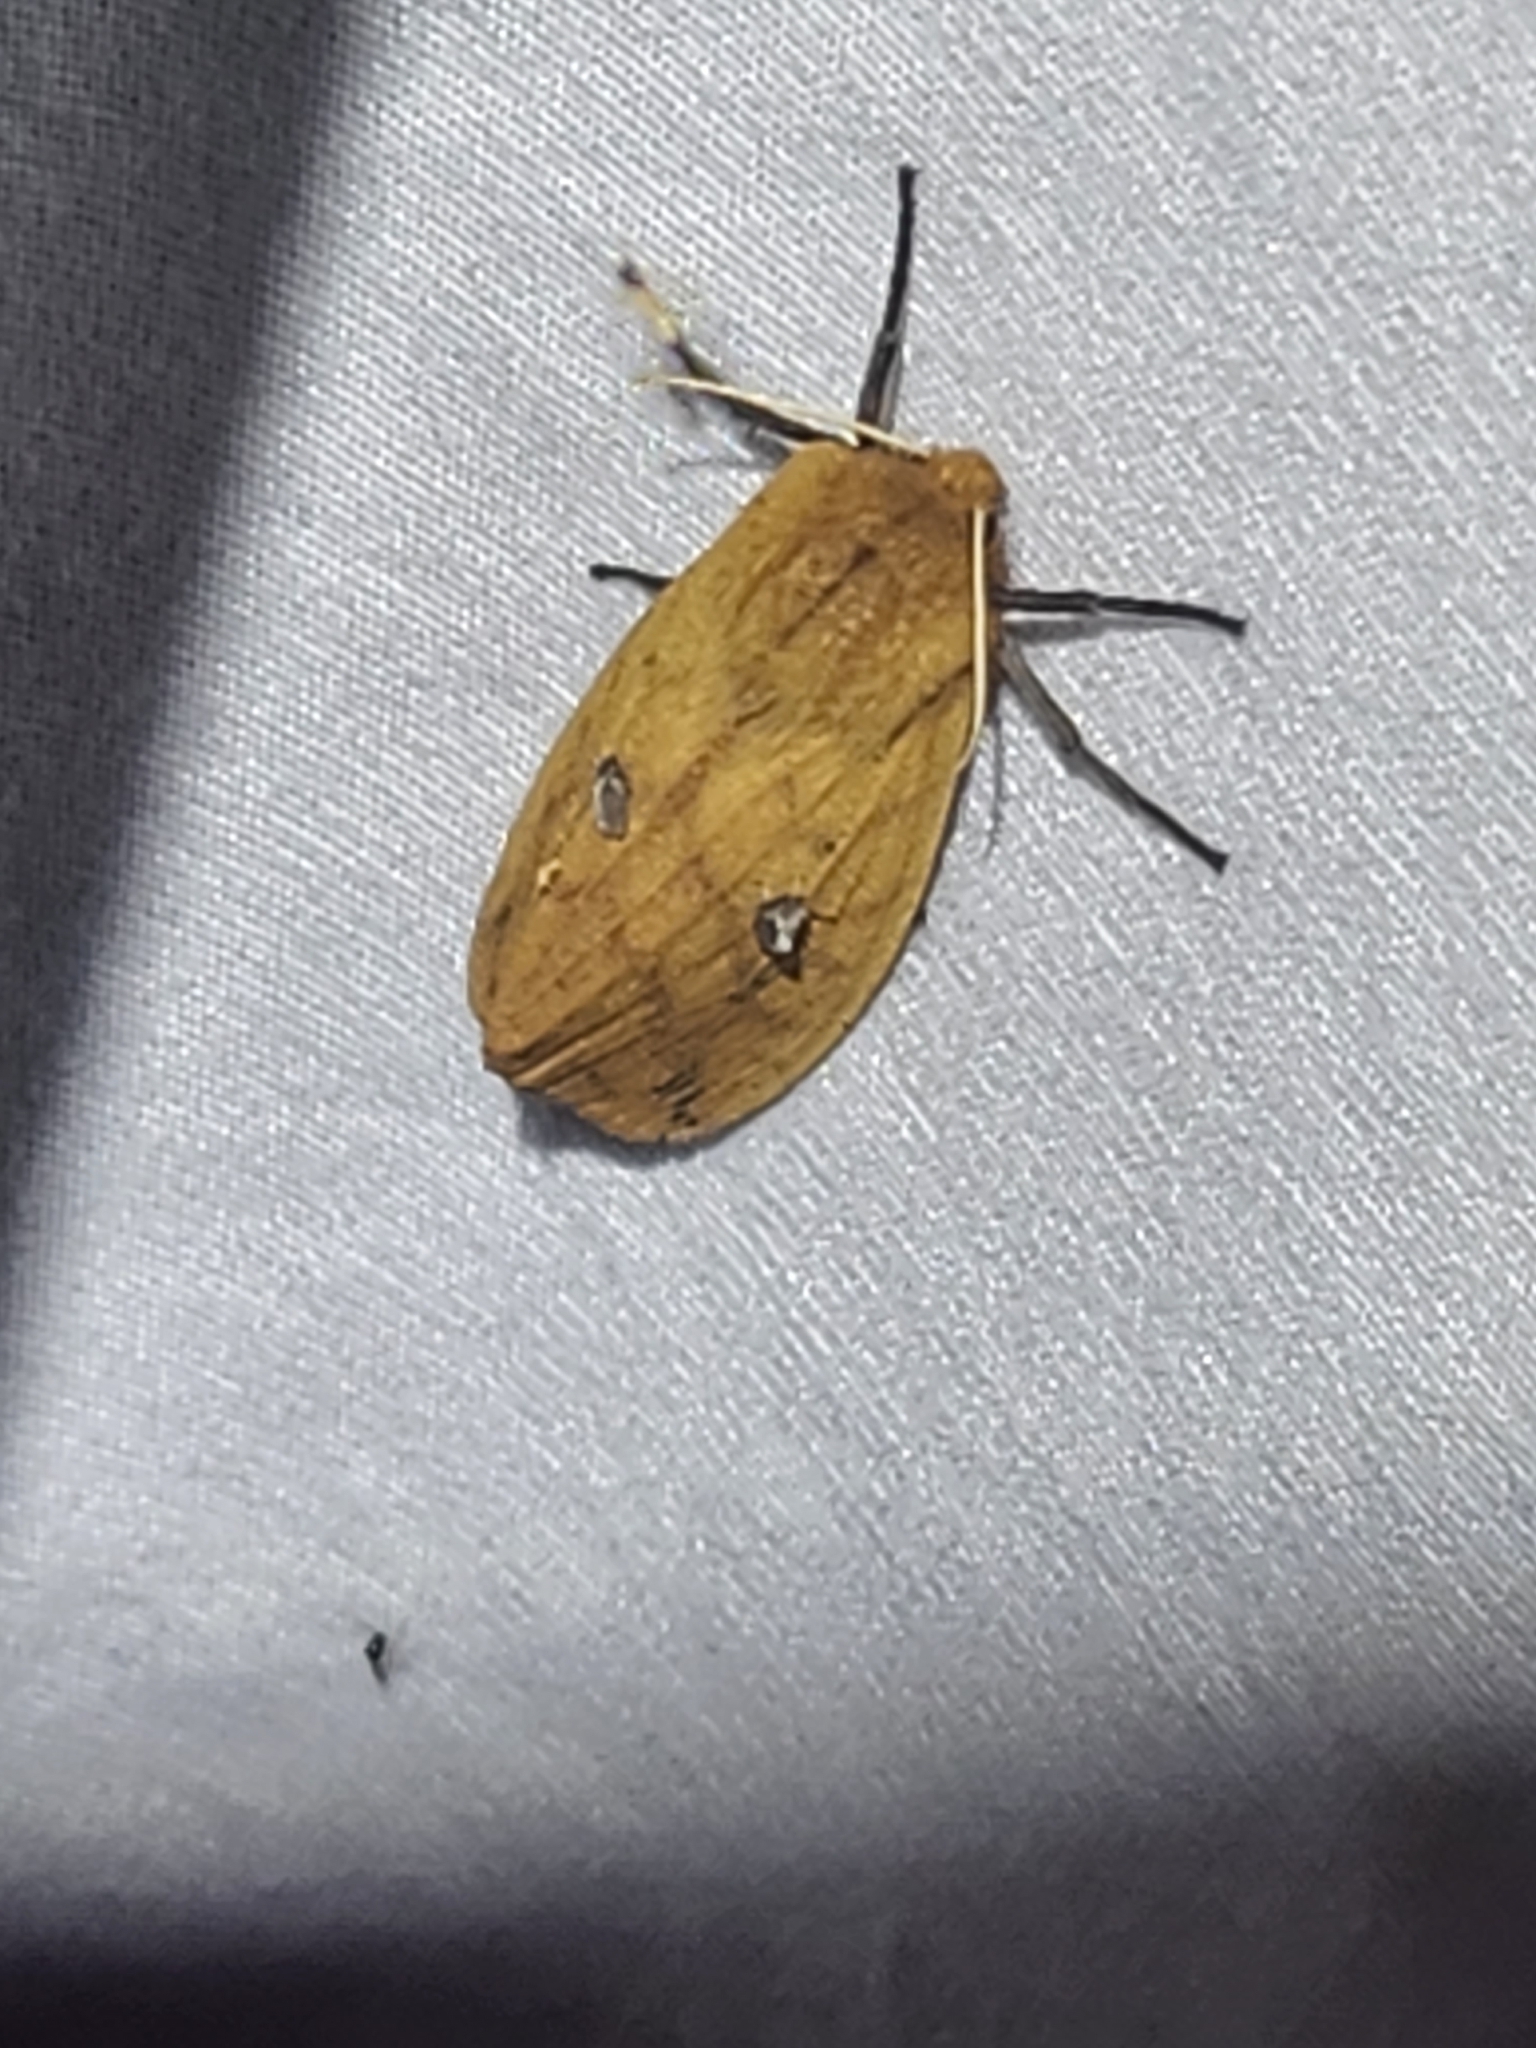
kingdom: Animalia
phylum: Arthropoda
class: Insecta
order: Lepidoptera
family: Erebidae
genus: Pyrrharctia
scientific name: Pyrrharctia isabella
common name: Isabella tiger moth
